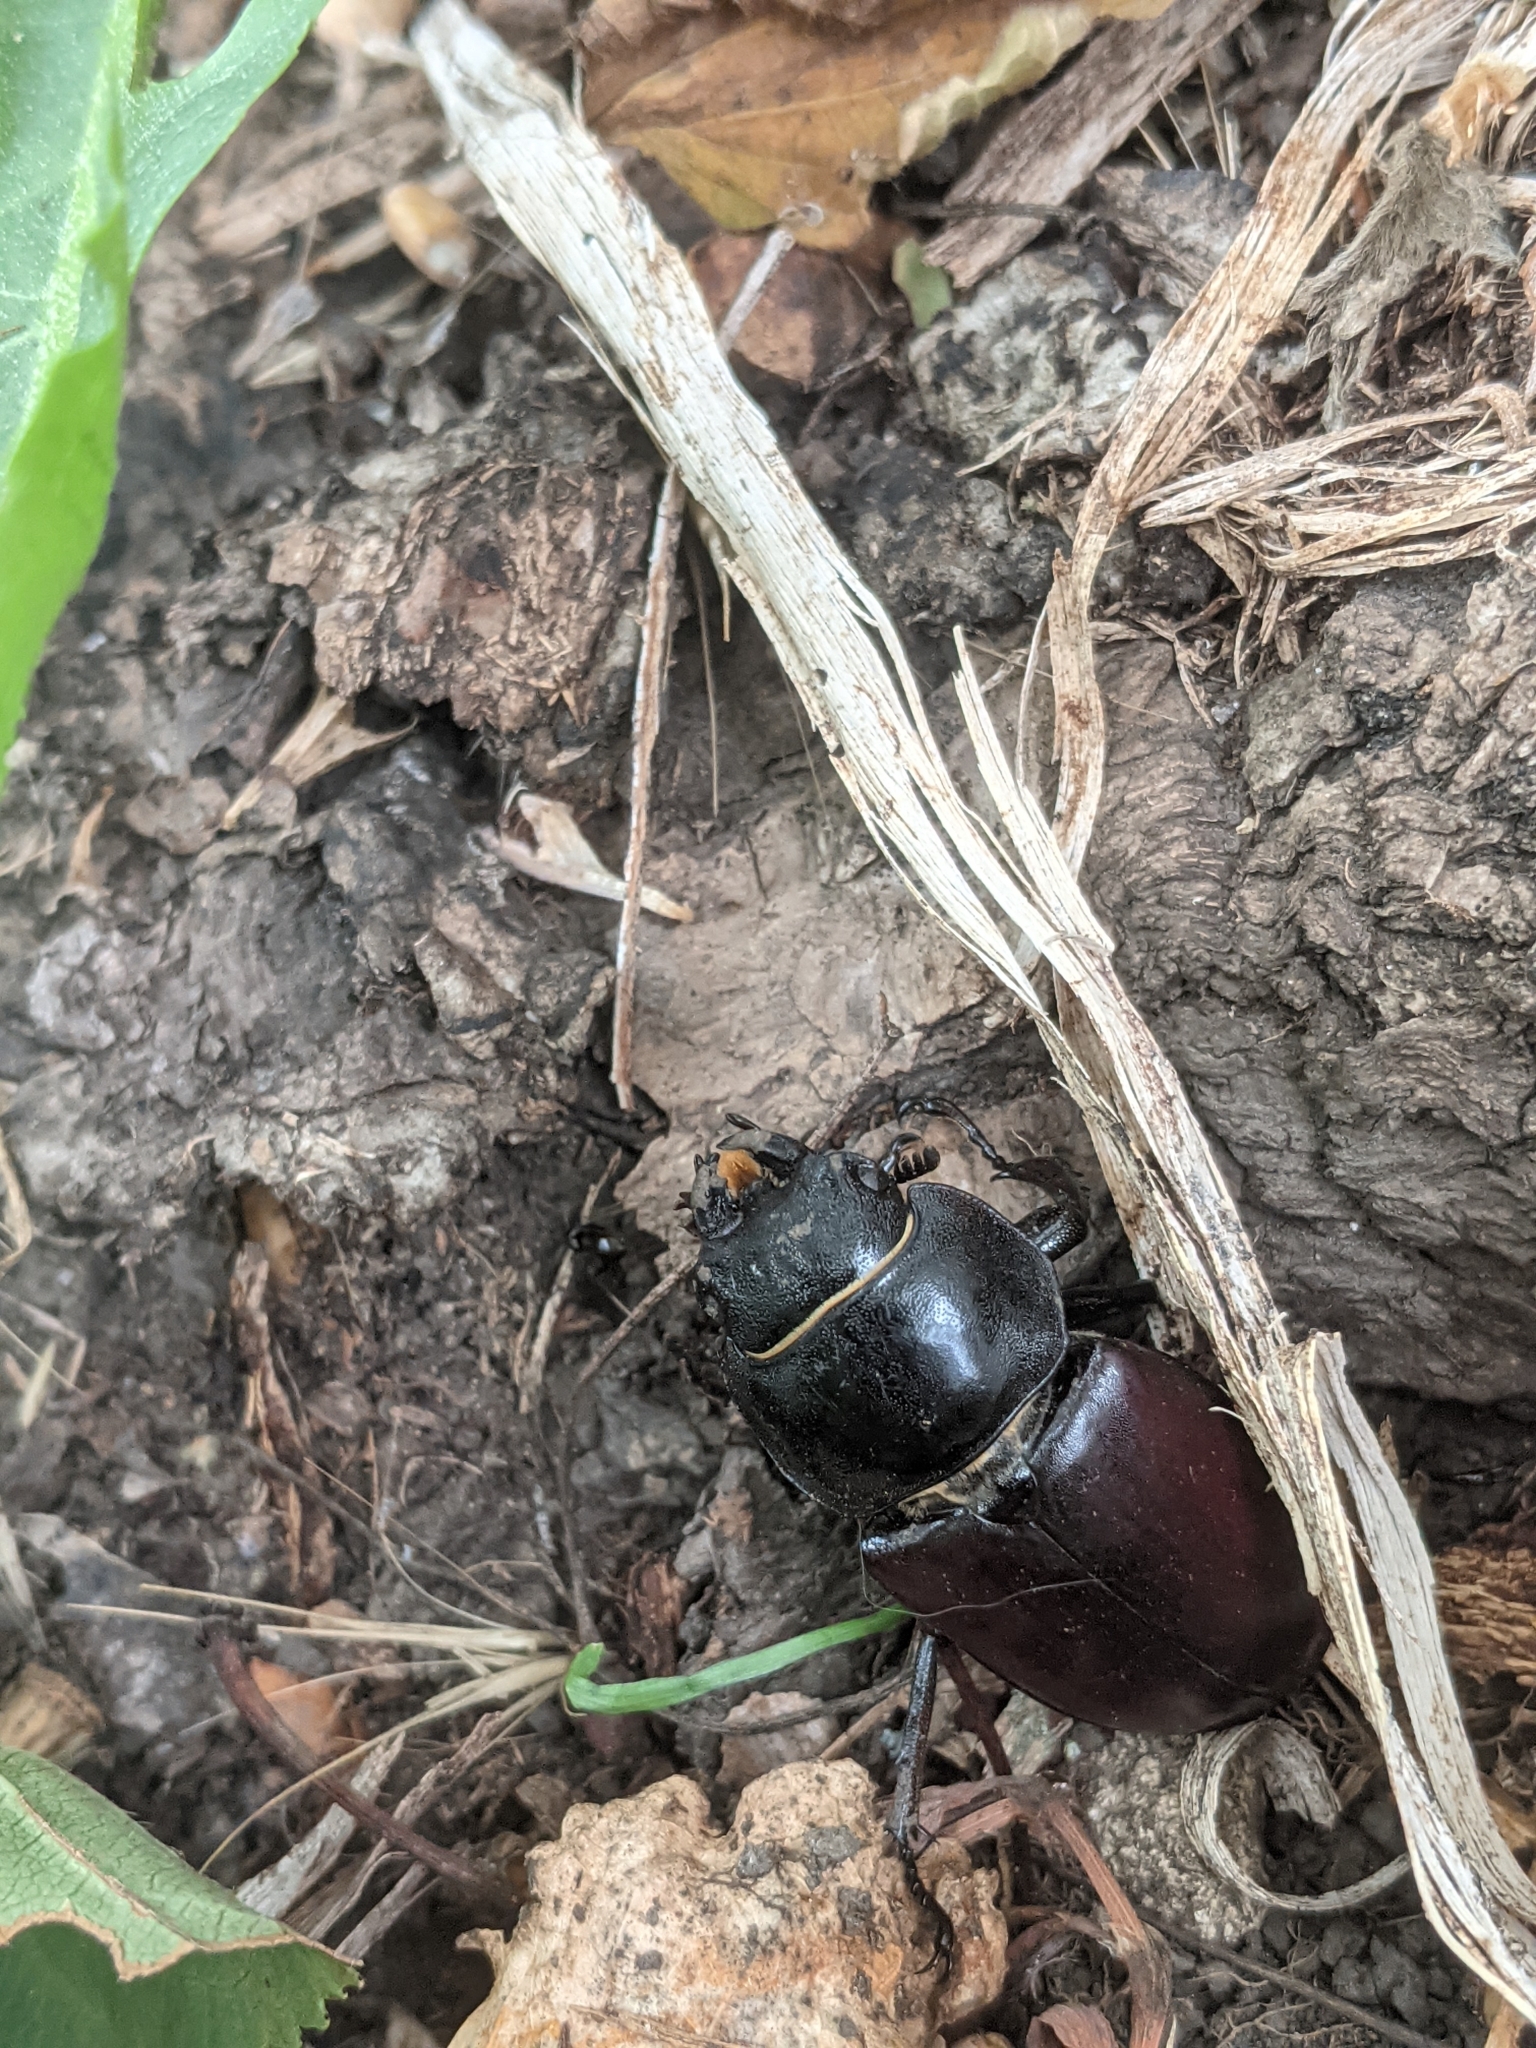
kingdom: Animalia
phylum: Arthropoda
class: Insecta
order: Coleoptera
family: Lucanidae
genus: Lucanus
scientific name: Lucanus cervus
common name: Stag beetle
